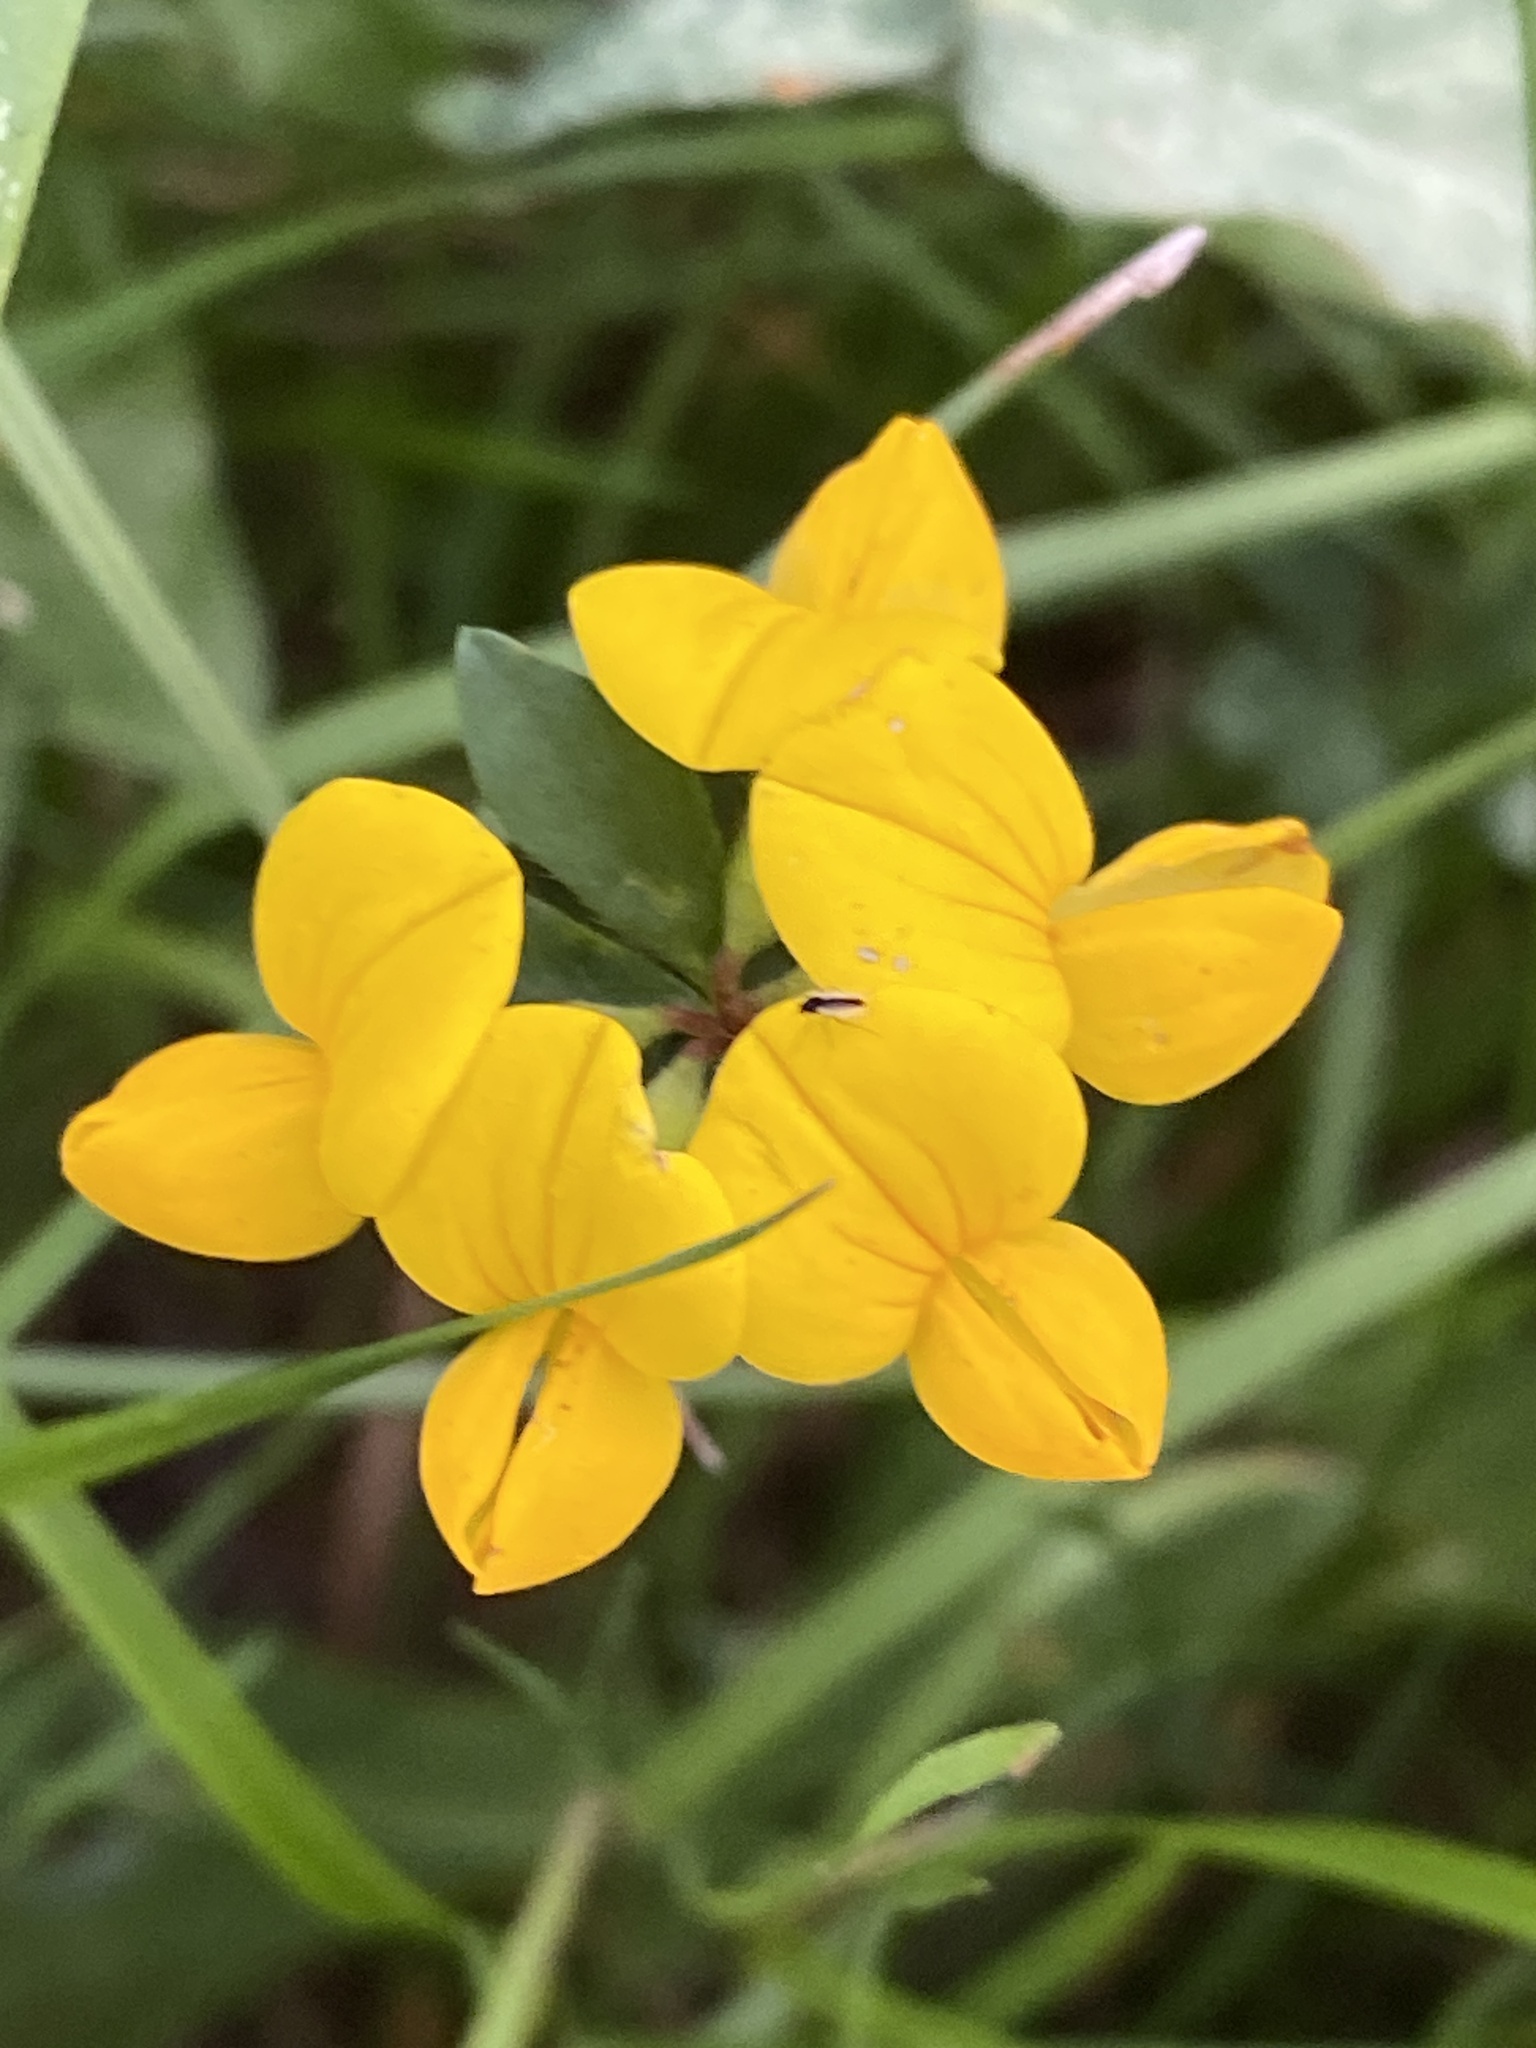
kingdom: Plantae
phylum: Tracheophyta
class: Magnoliopsida
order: Fabales
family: Fabaceae
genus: Lotus
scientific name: Lotus corniculatus
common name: Common bird's-foot-trefoil
